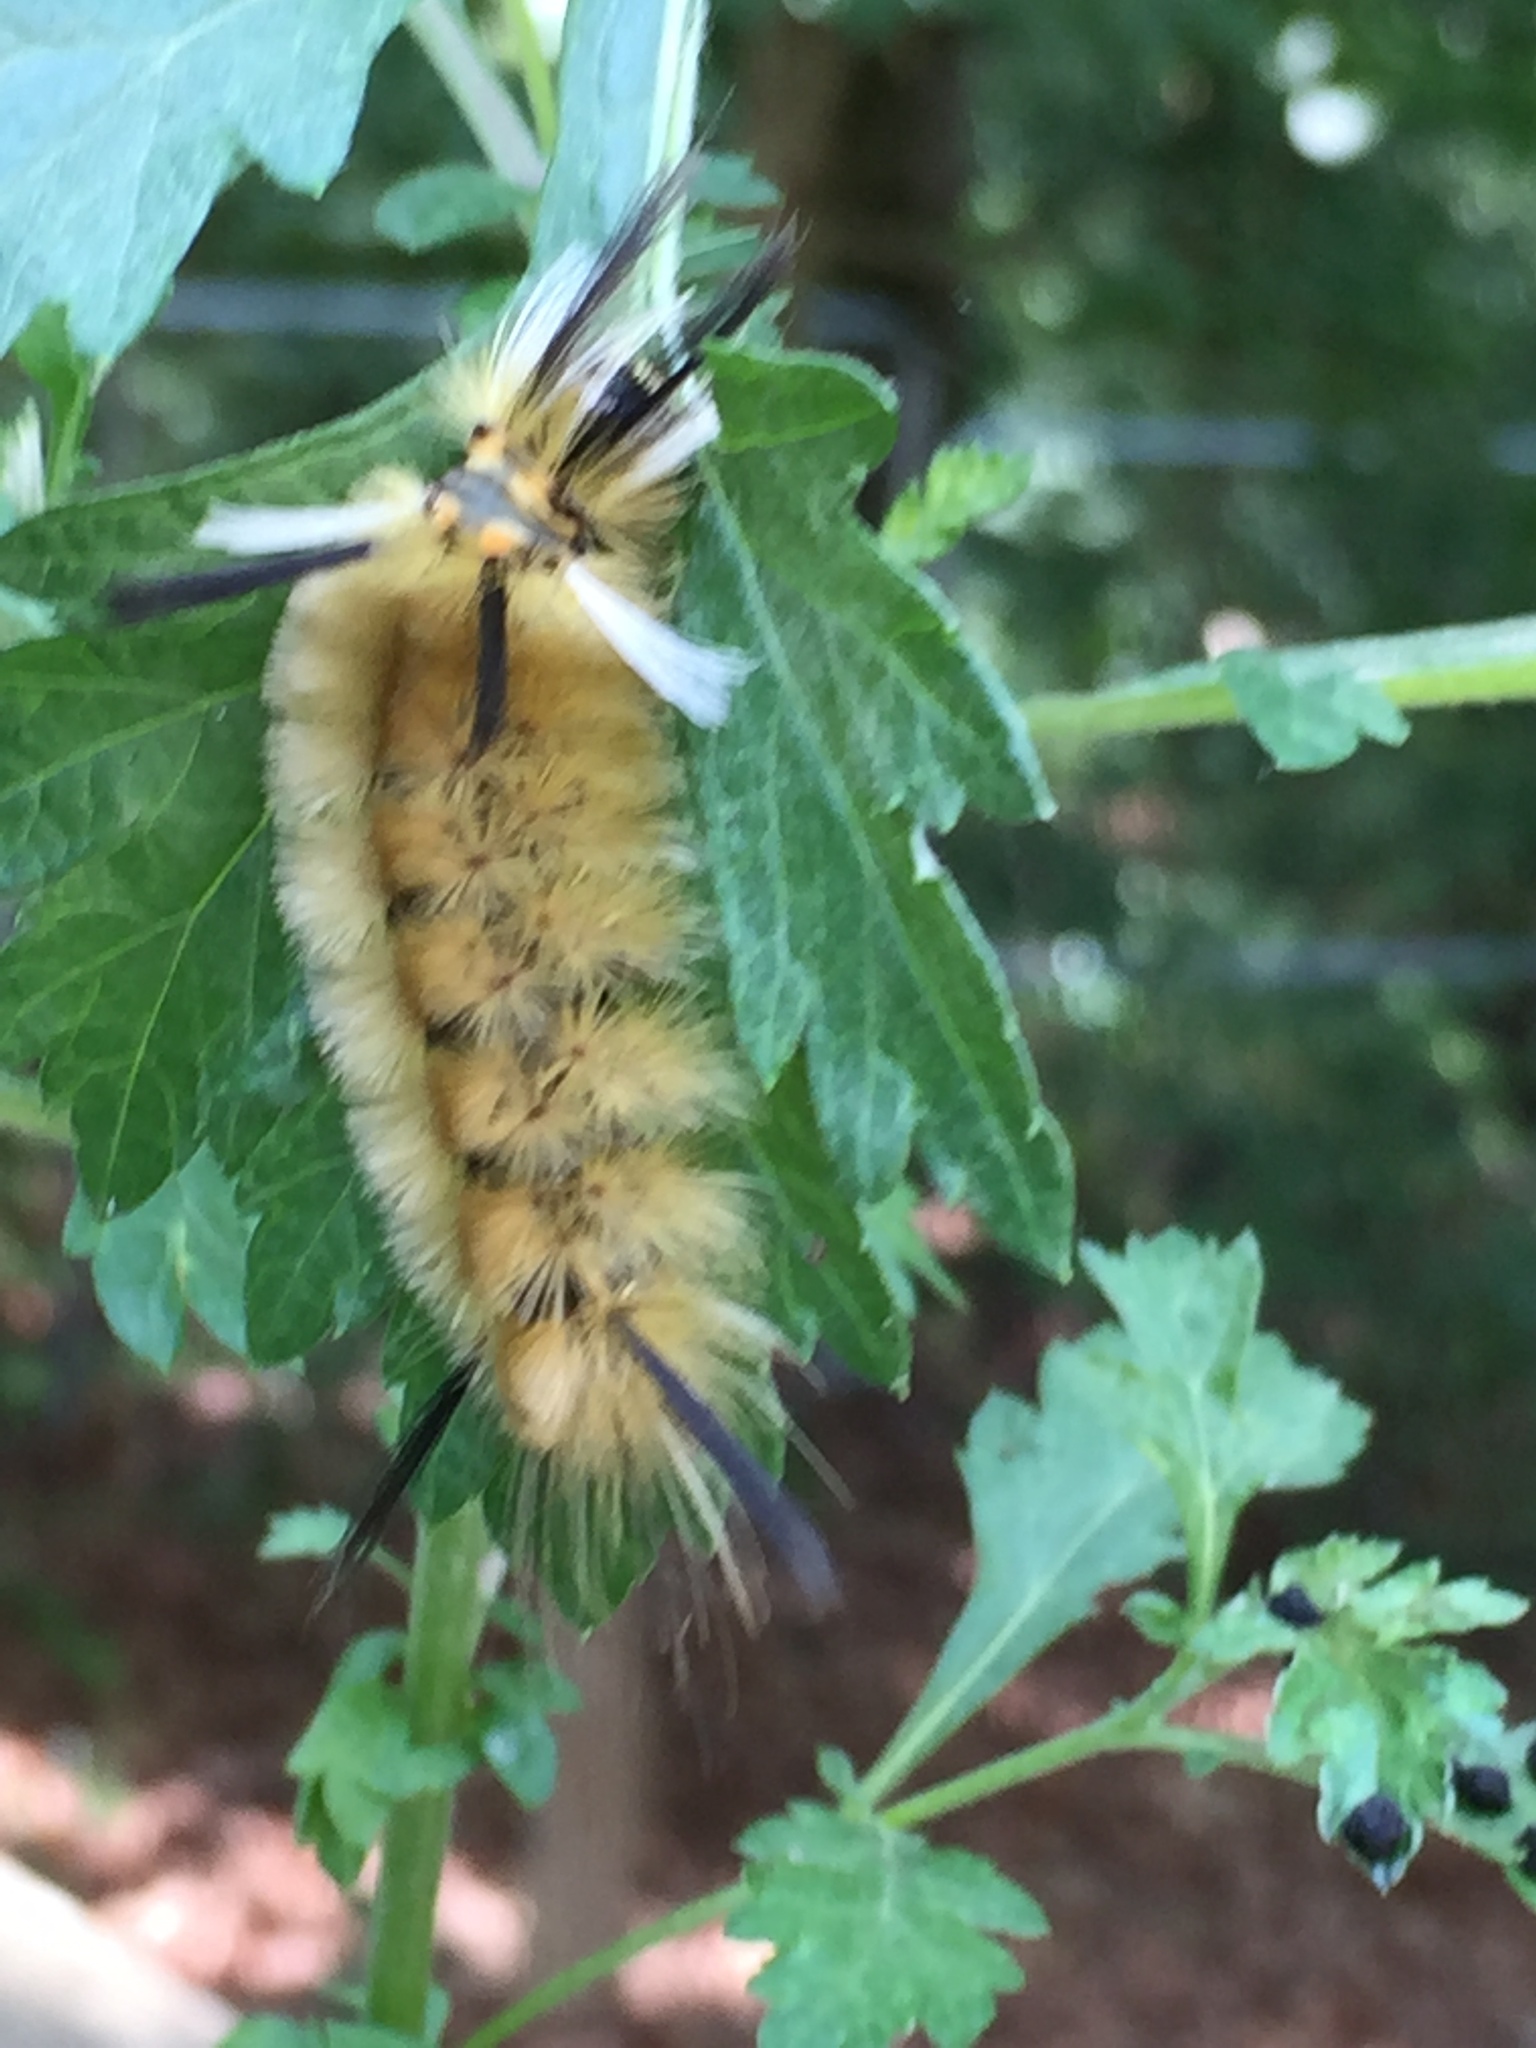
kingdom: Animalia
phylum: Arthropoda
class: Insecta
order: Lepidoptera
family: Erebidae
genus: Halysidota
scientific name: Halysidota tessellaris
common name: Banded tussock moth
